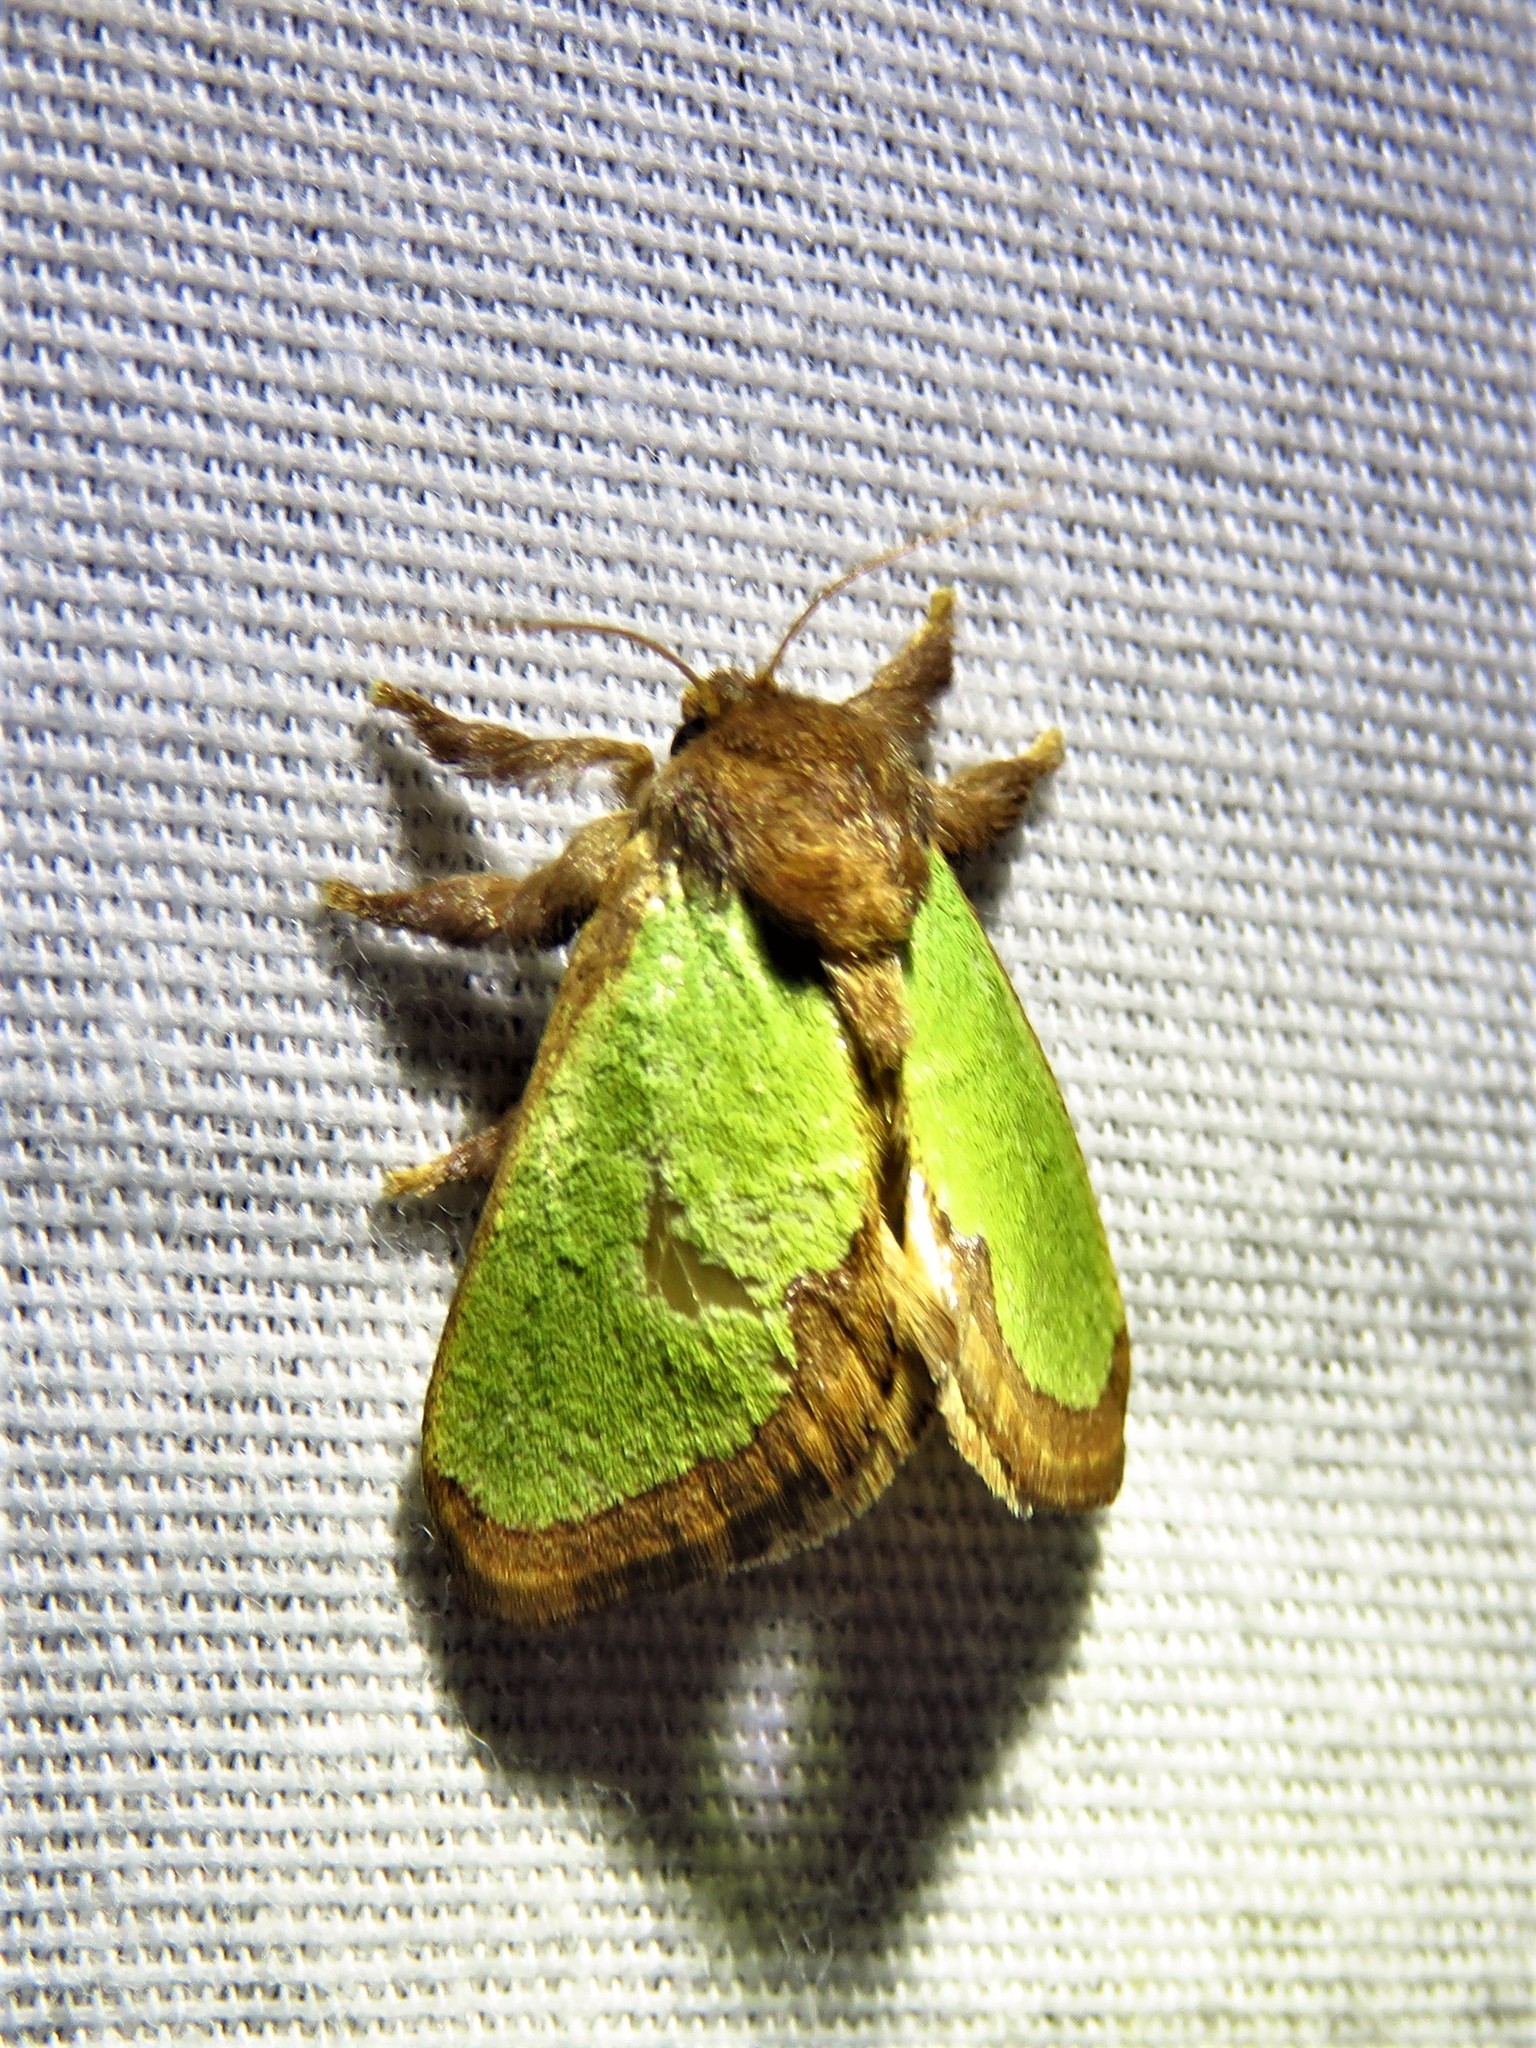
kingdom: Animalia
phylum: Arthropoda
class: Insecta
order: Lepidoptera
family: Limacodidae
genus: Euclea
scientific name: Euclea incisa
